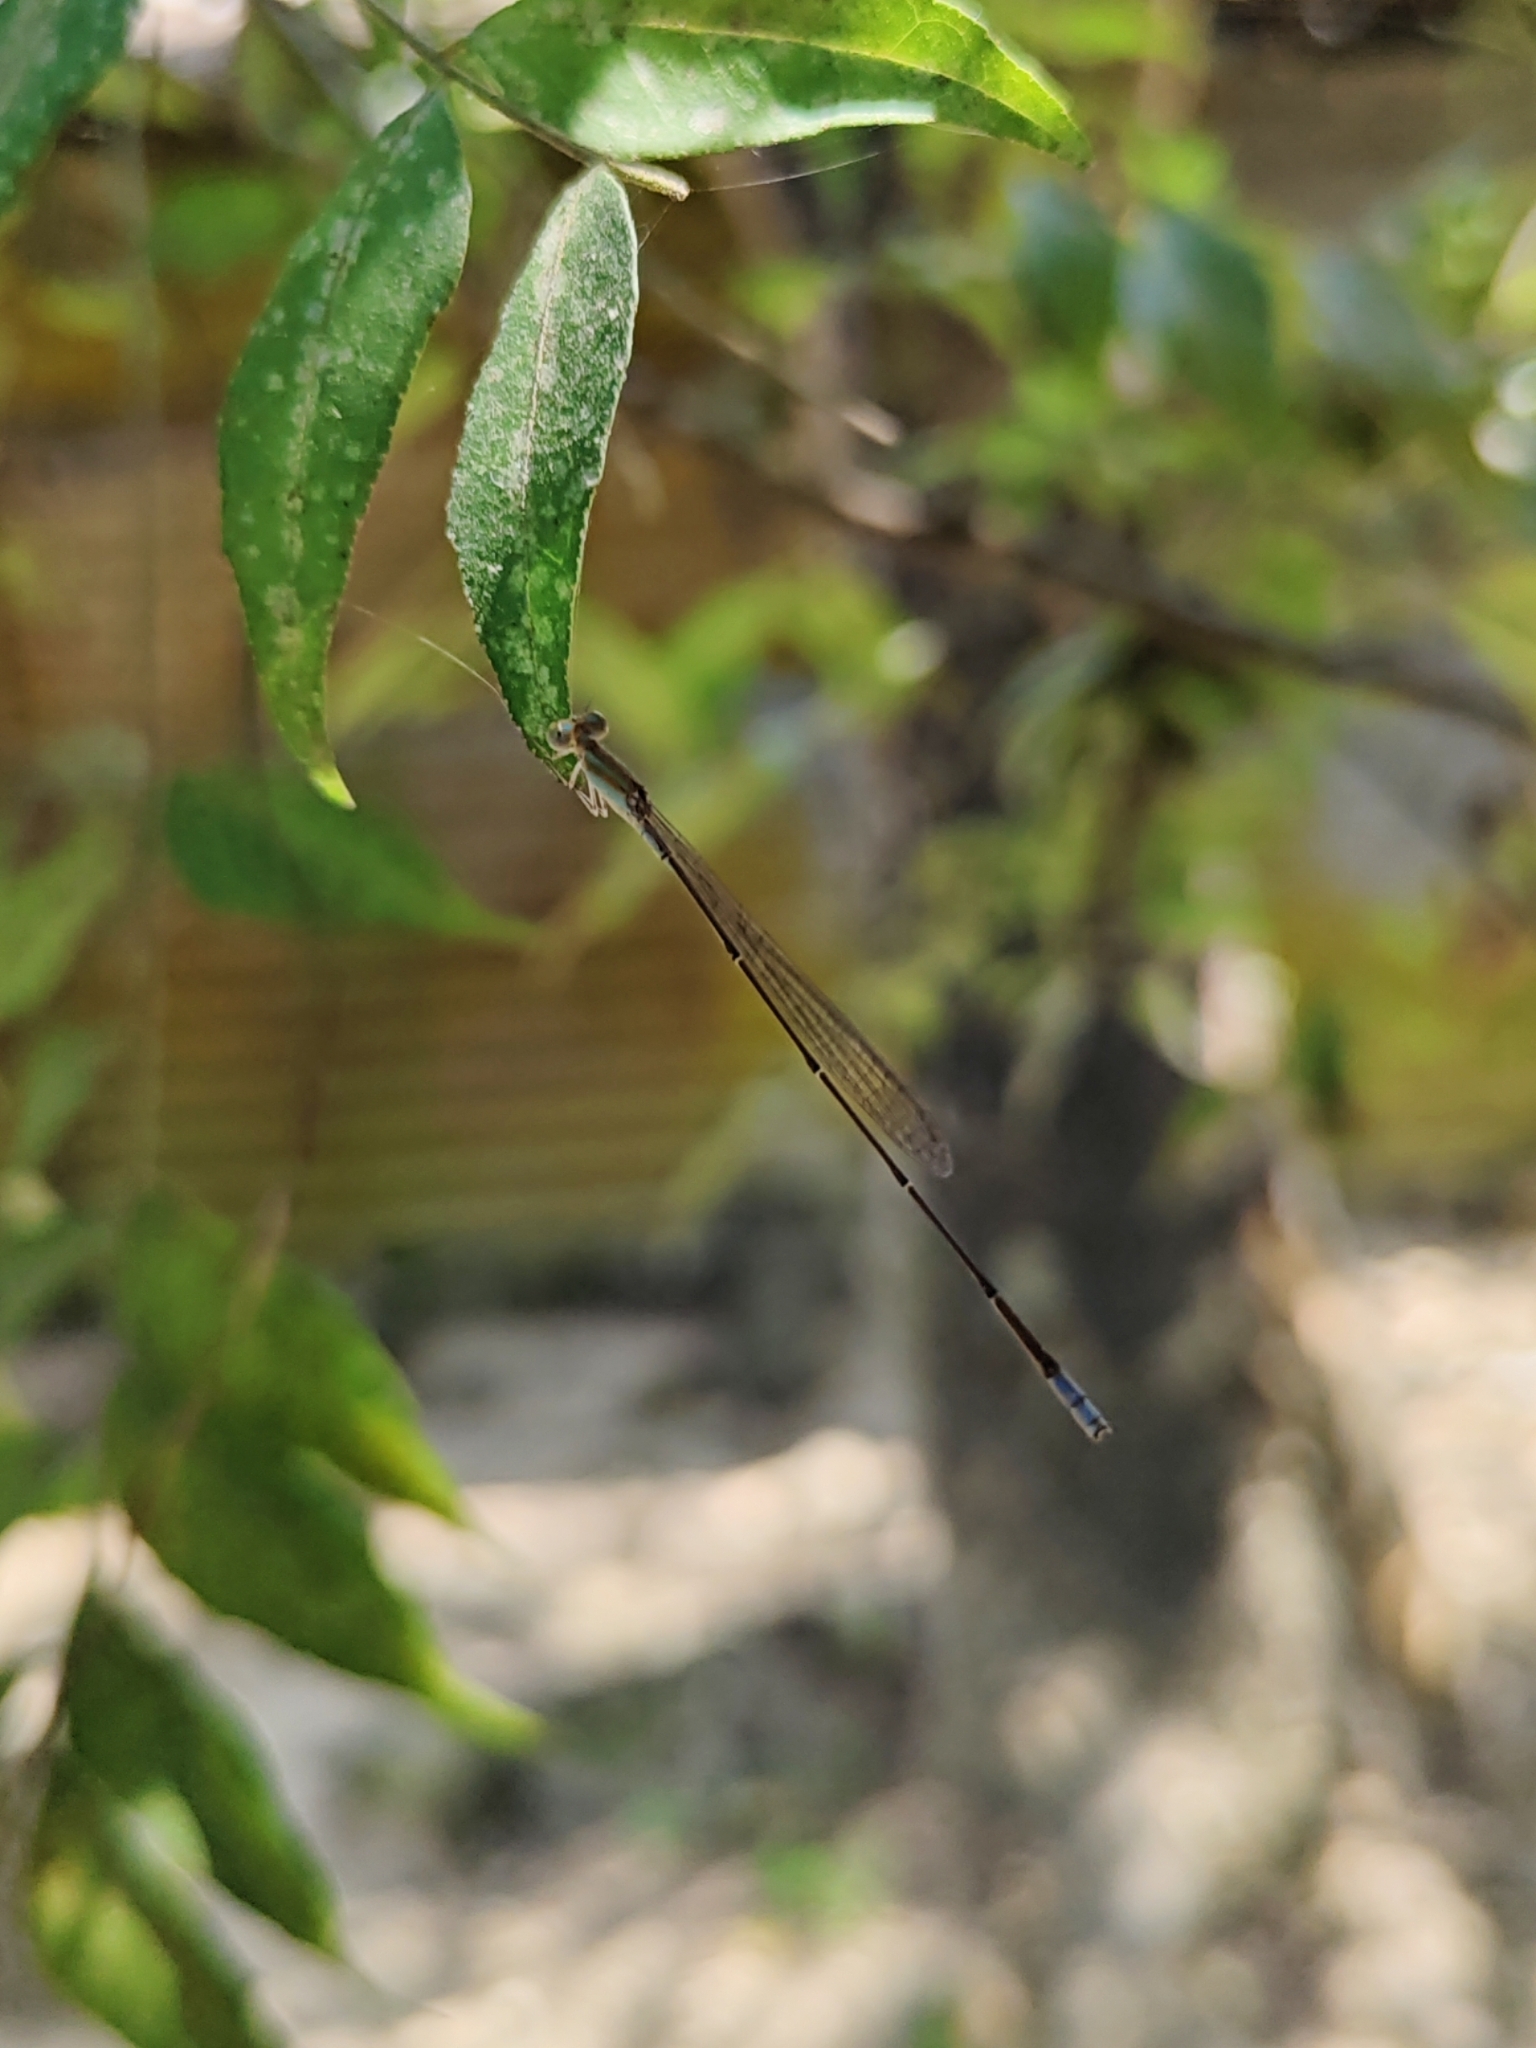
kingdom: Animalia
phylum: Arthropoda
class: Insecta
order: Odonata
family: Coenagrionidae
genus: Aciagrion
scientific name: Aciagrion pallidum
